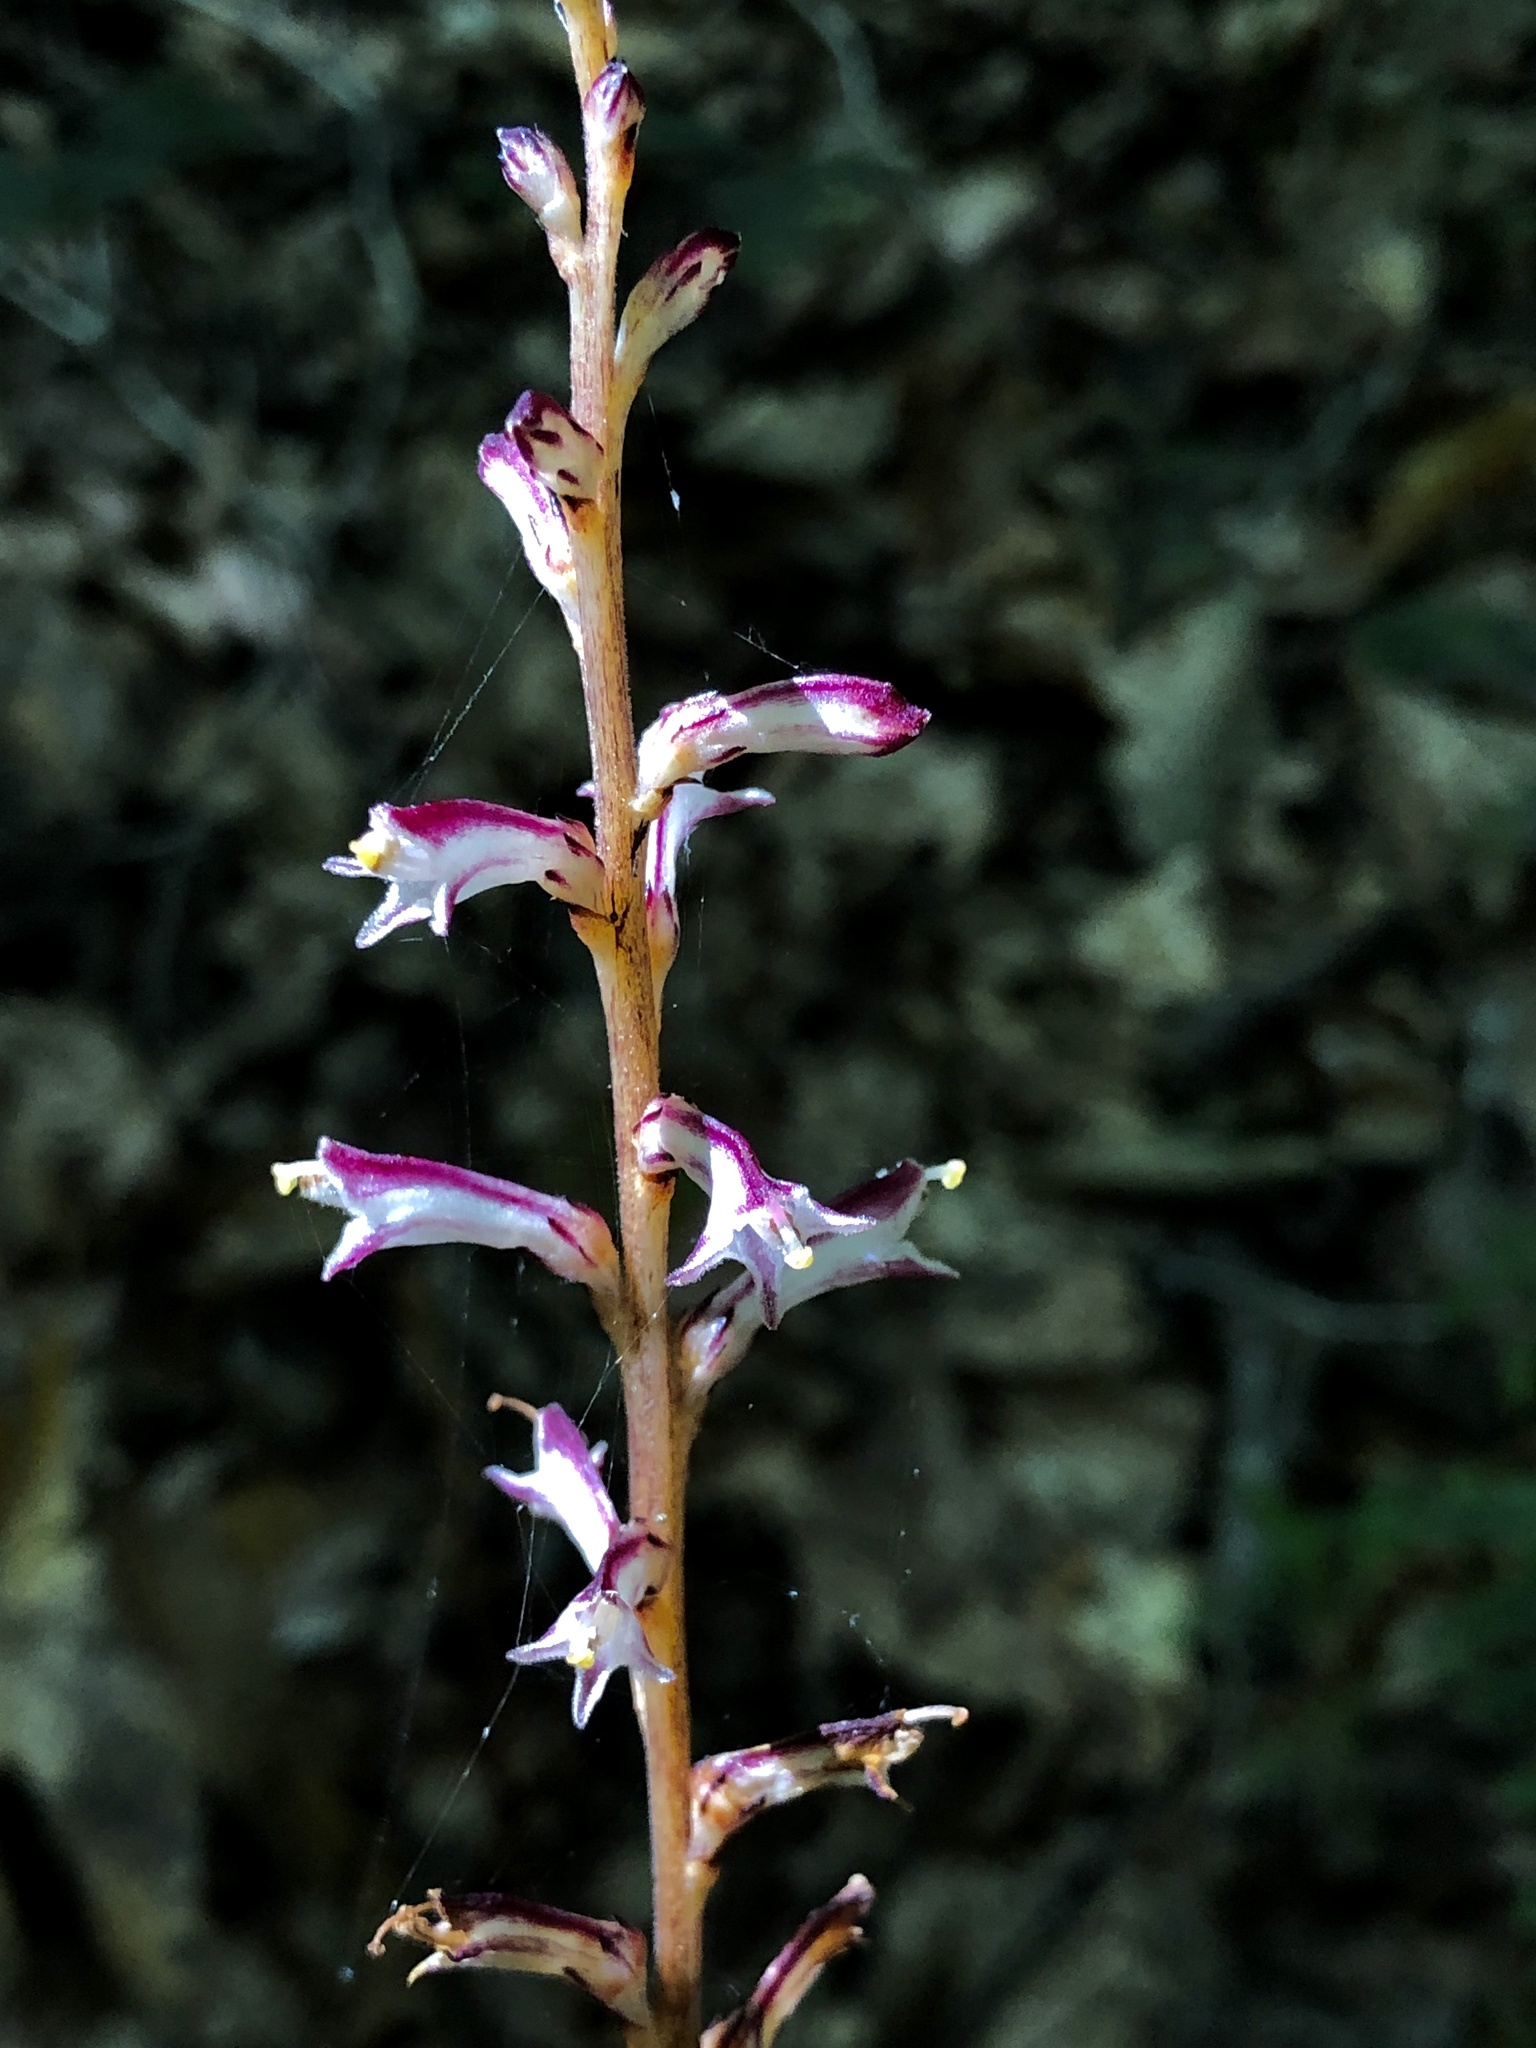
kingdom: Plantae
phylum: Tracheophyta
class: Magnoliopsida
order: Lamiales
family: Orobanchaceae
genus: Epifagus
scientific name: Epifagus virginiana
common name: Beechdrops
